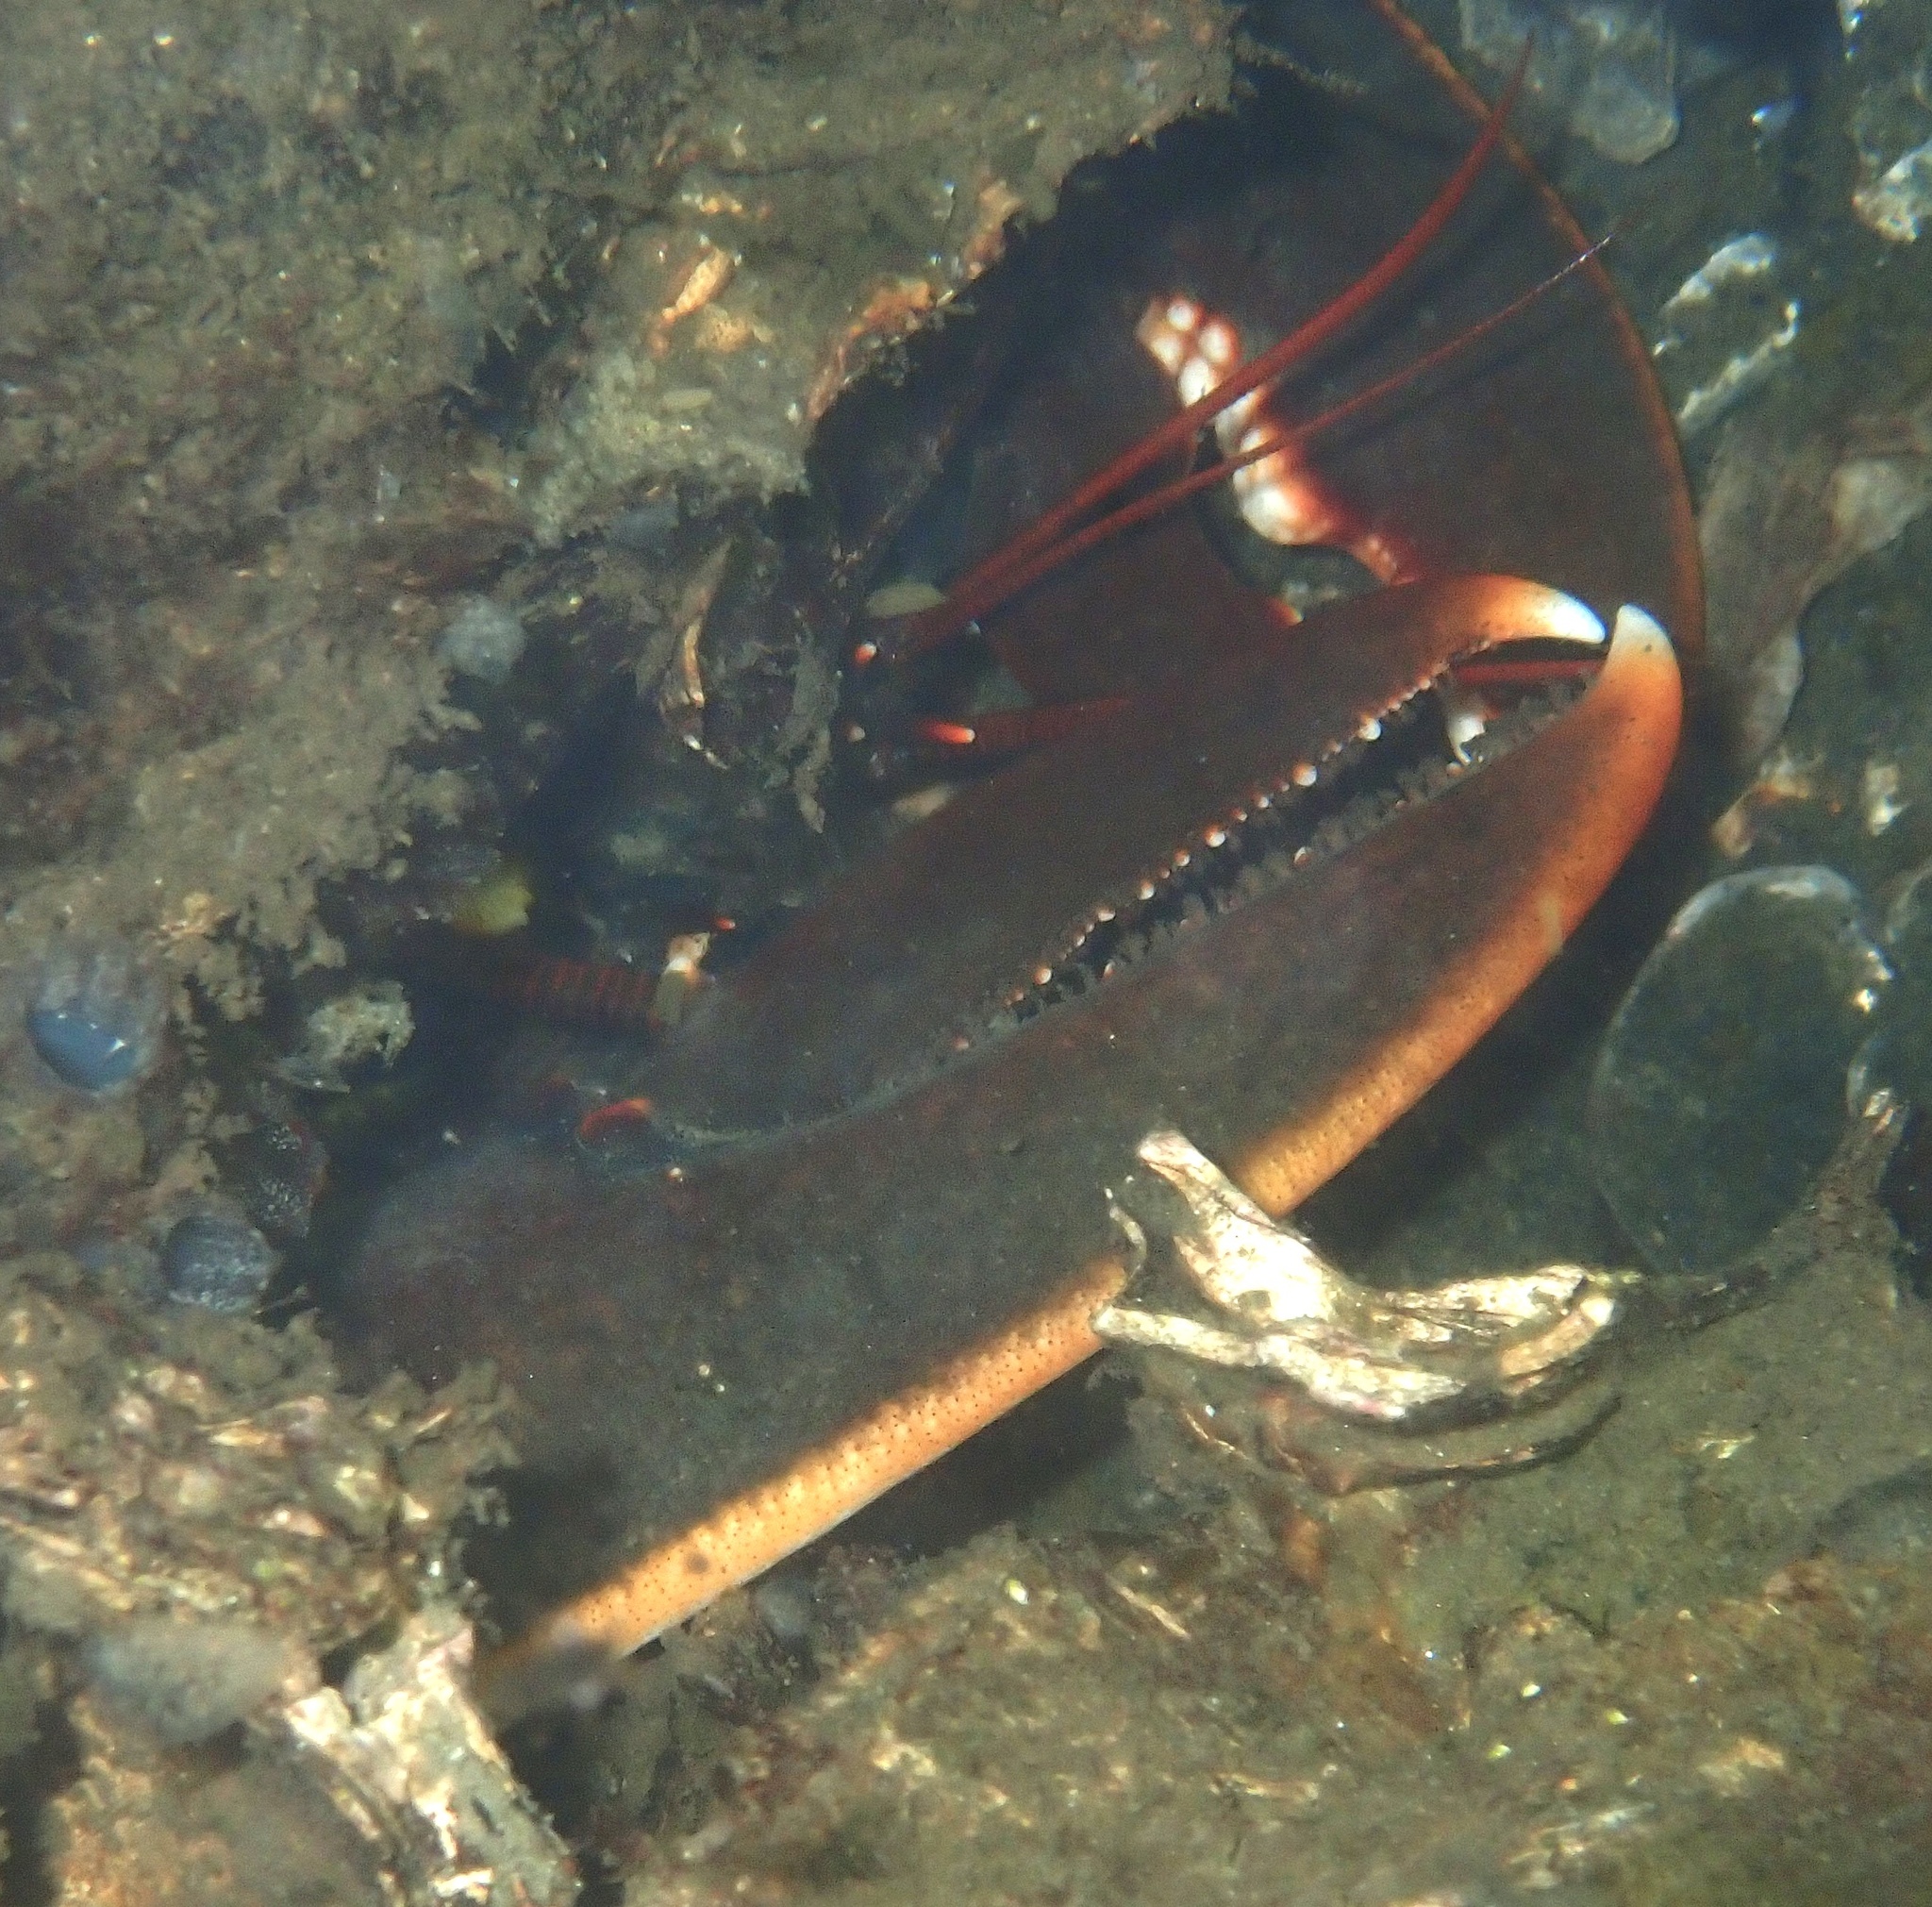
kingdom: Animalia
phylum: Arthropoda
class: Malacostraca
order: Decapoda
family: Nephropidae
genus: Homarus
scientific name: Homarus gammarus
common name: European lobster
